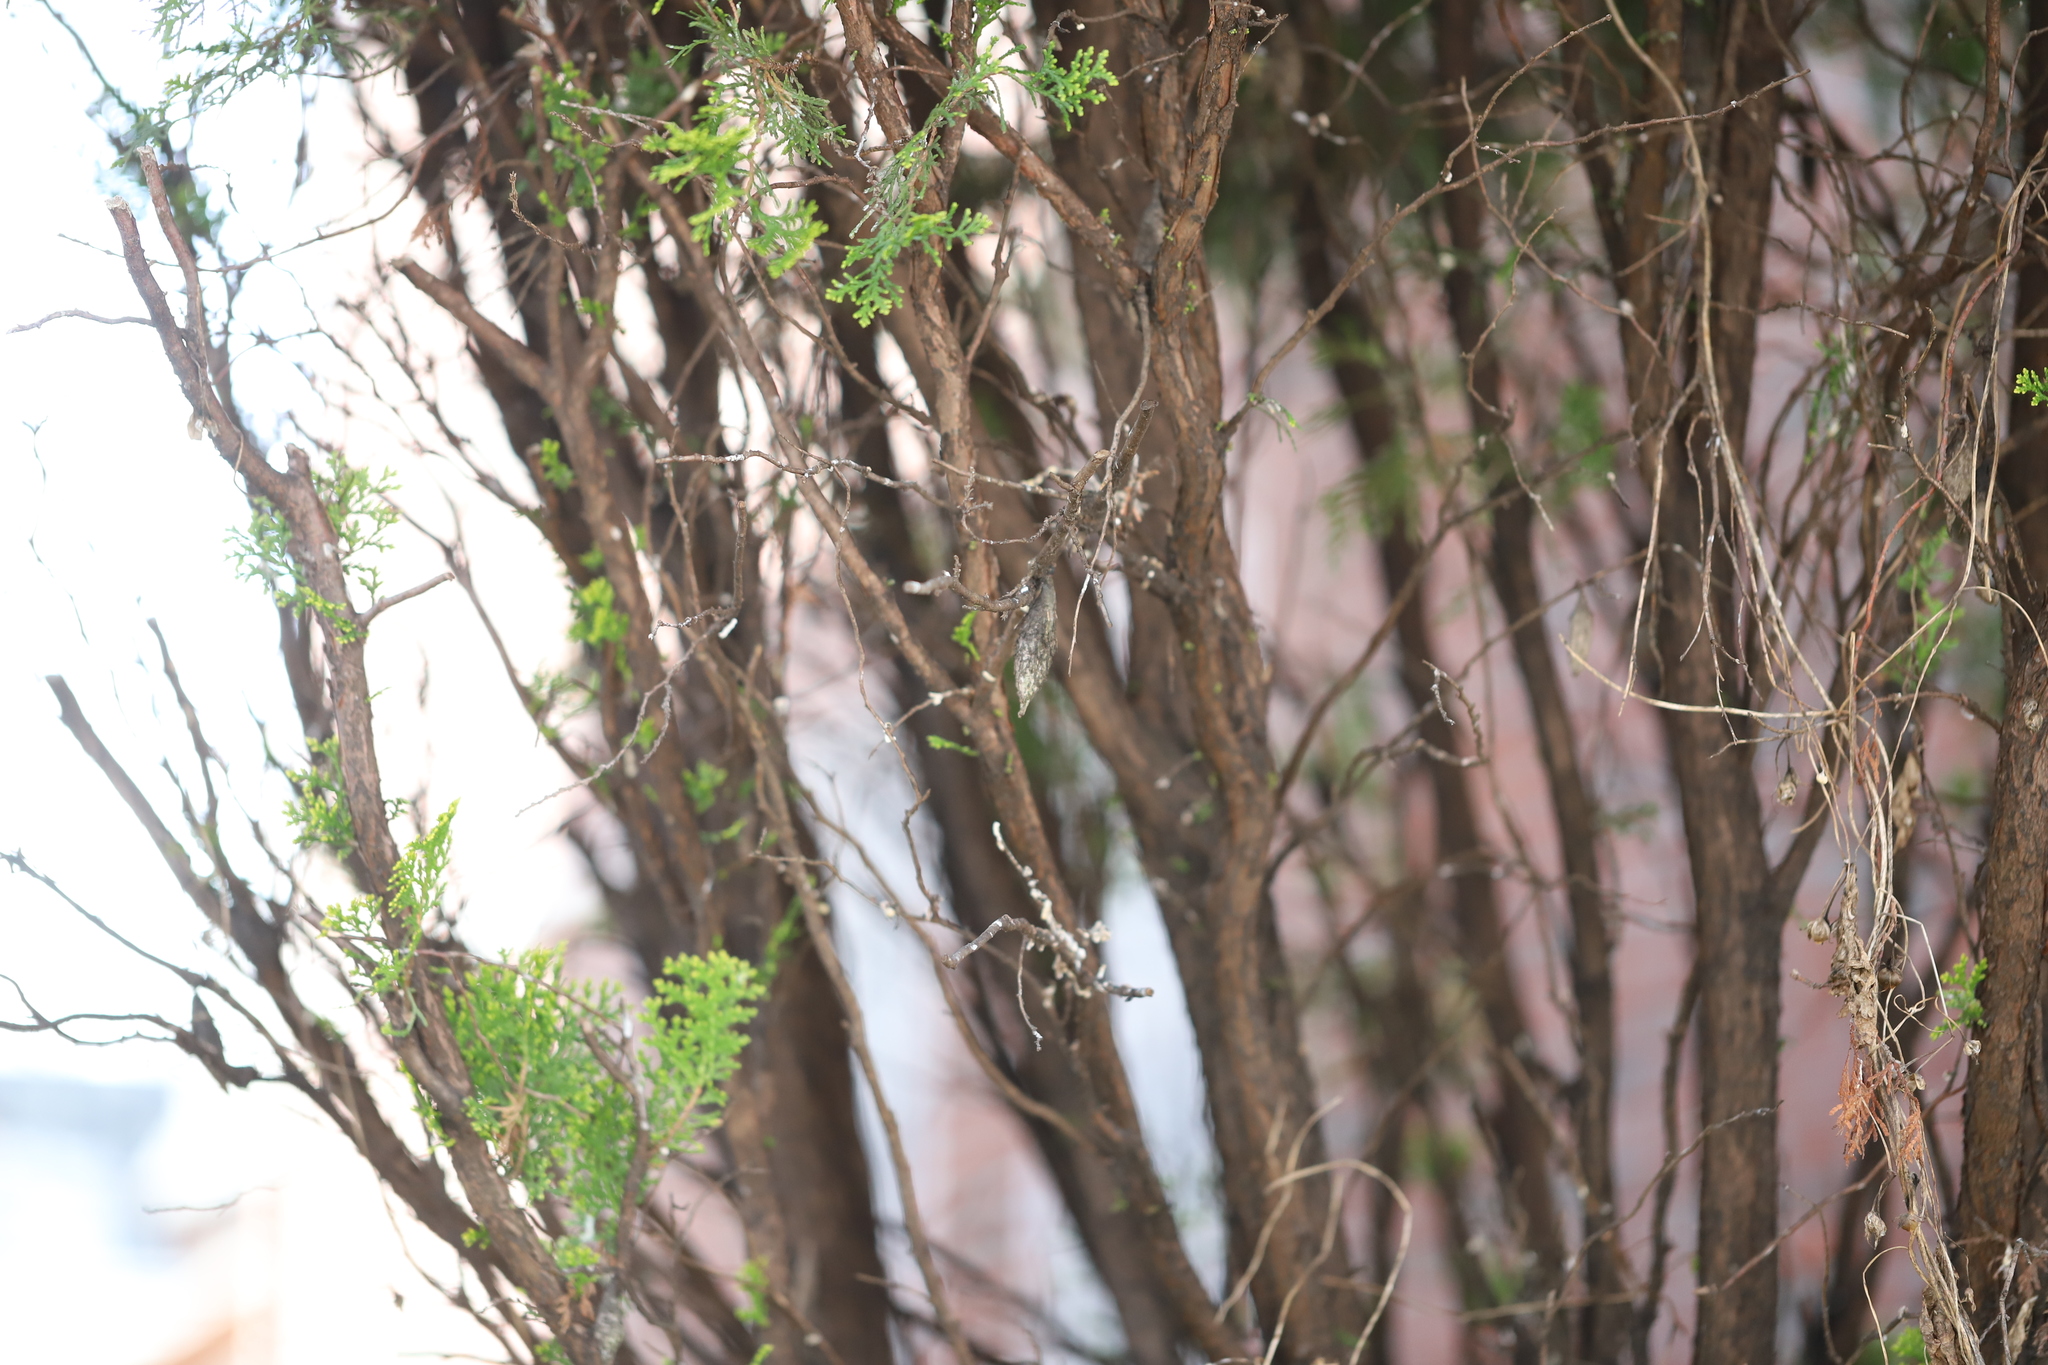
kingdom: Animalia
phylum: Arthropoda
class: Insecta
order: Lepidoptera
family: Psychidae
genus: Thyridopteryx
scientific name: Thyridopteryx ephemeraeformis
